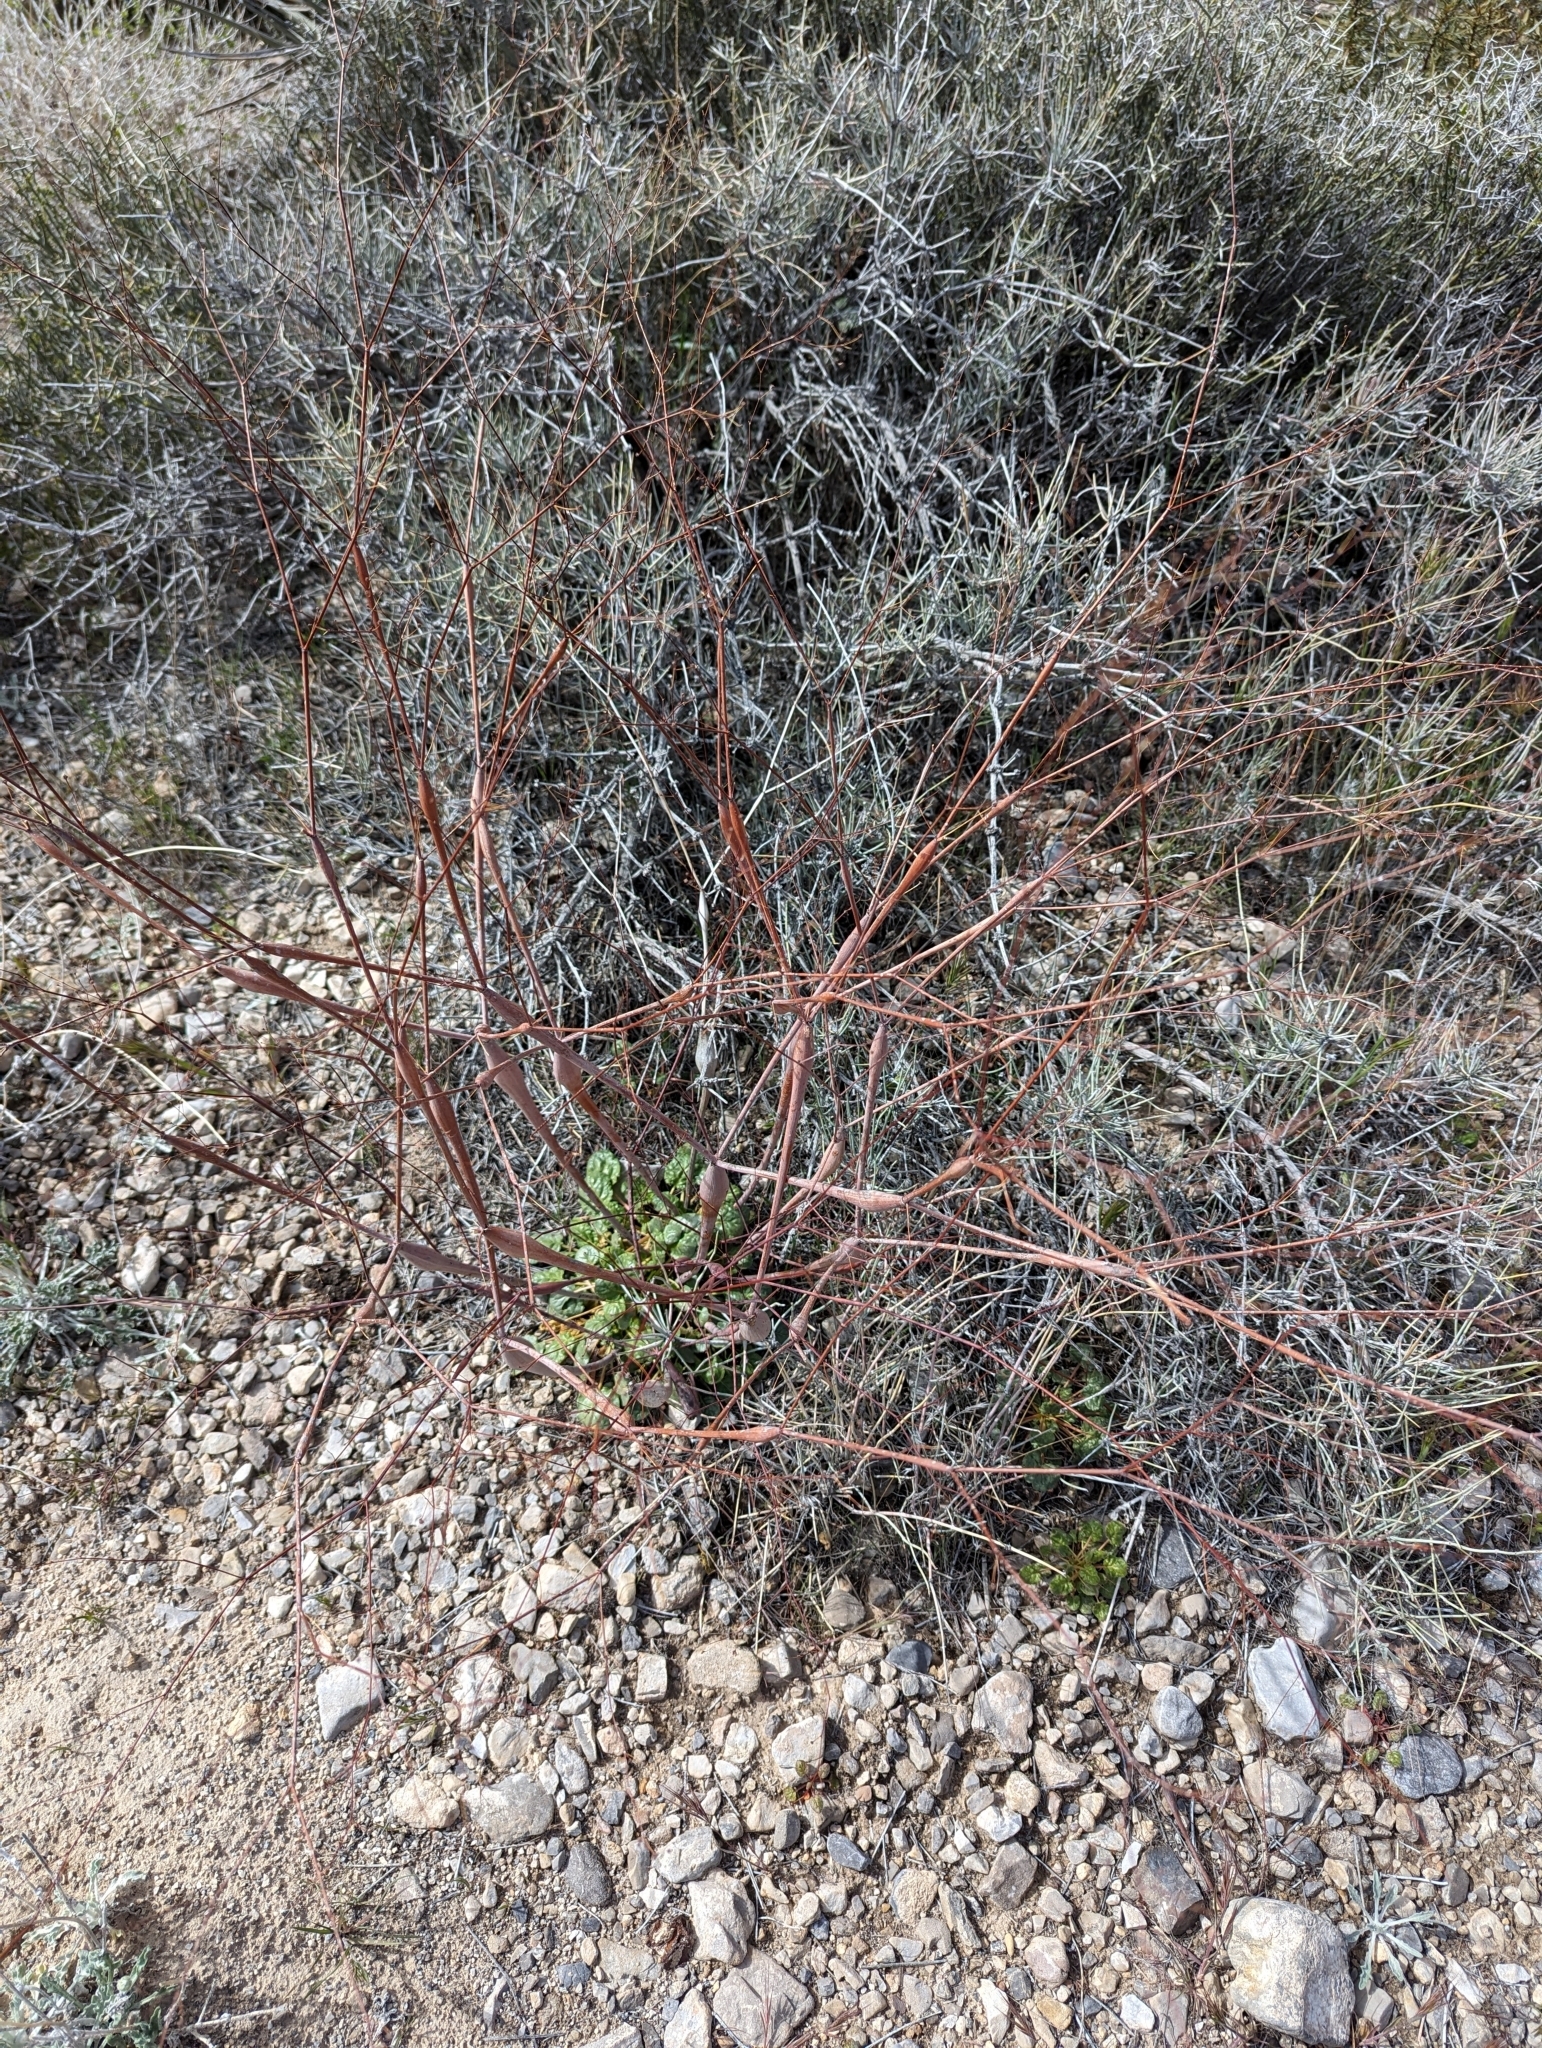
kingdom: Plantae
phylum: Tracheophyta
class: Magnoliopsida
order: Caryophyllales
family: Polygonaceae
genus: Eriogonum
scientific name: Eriogonum inflatum
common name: Desert trumpet
